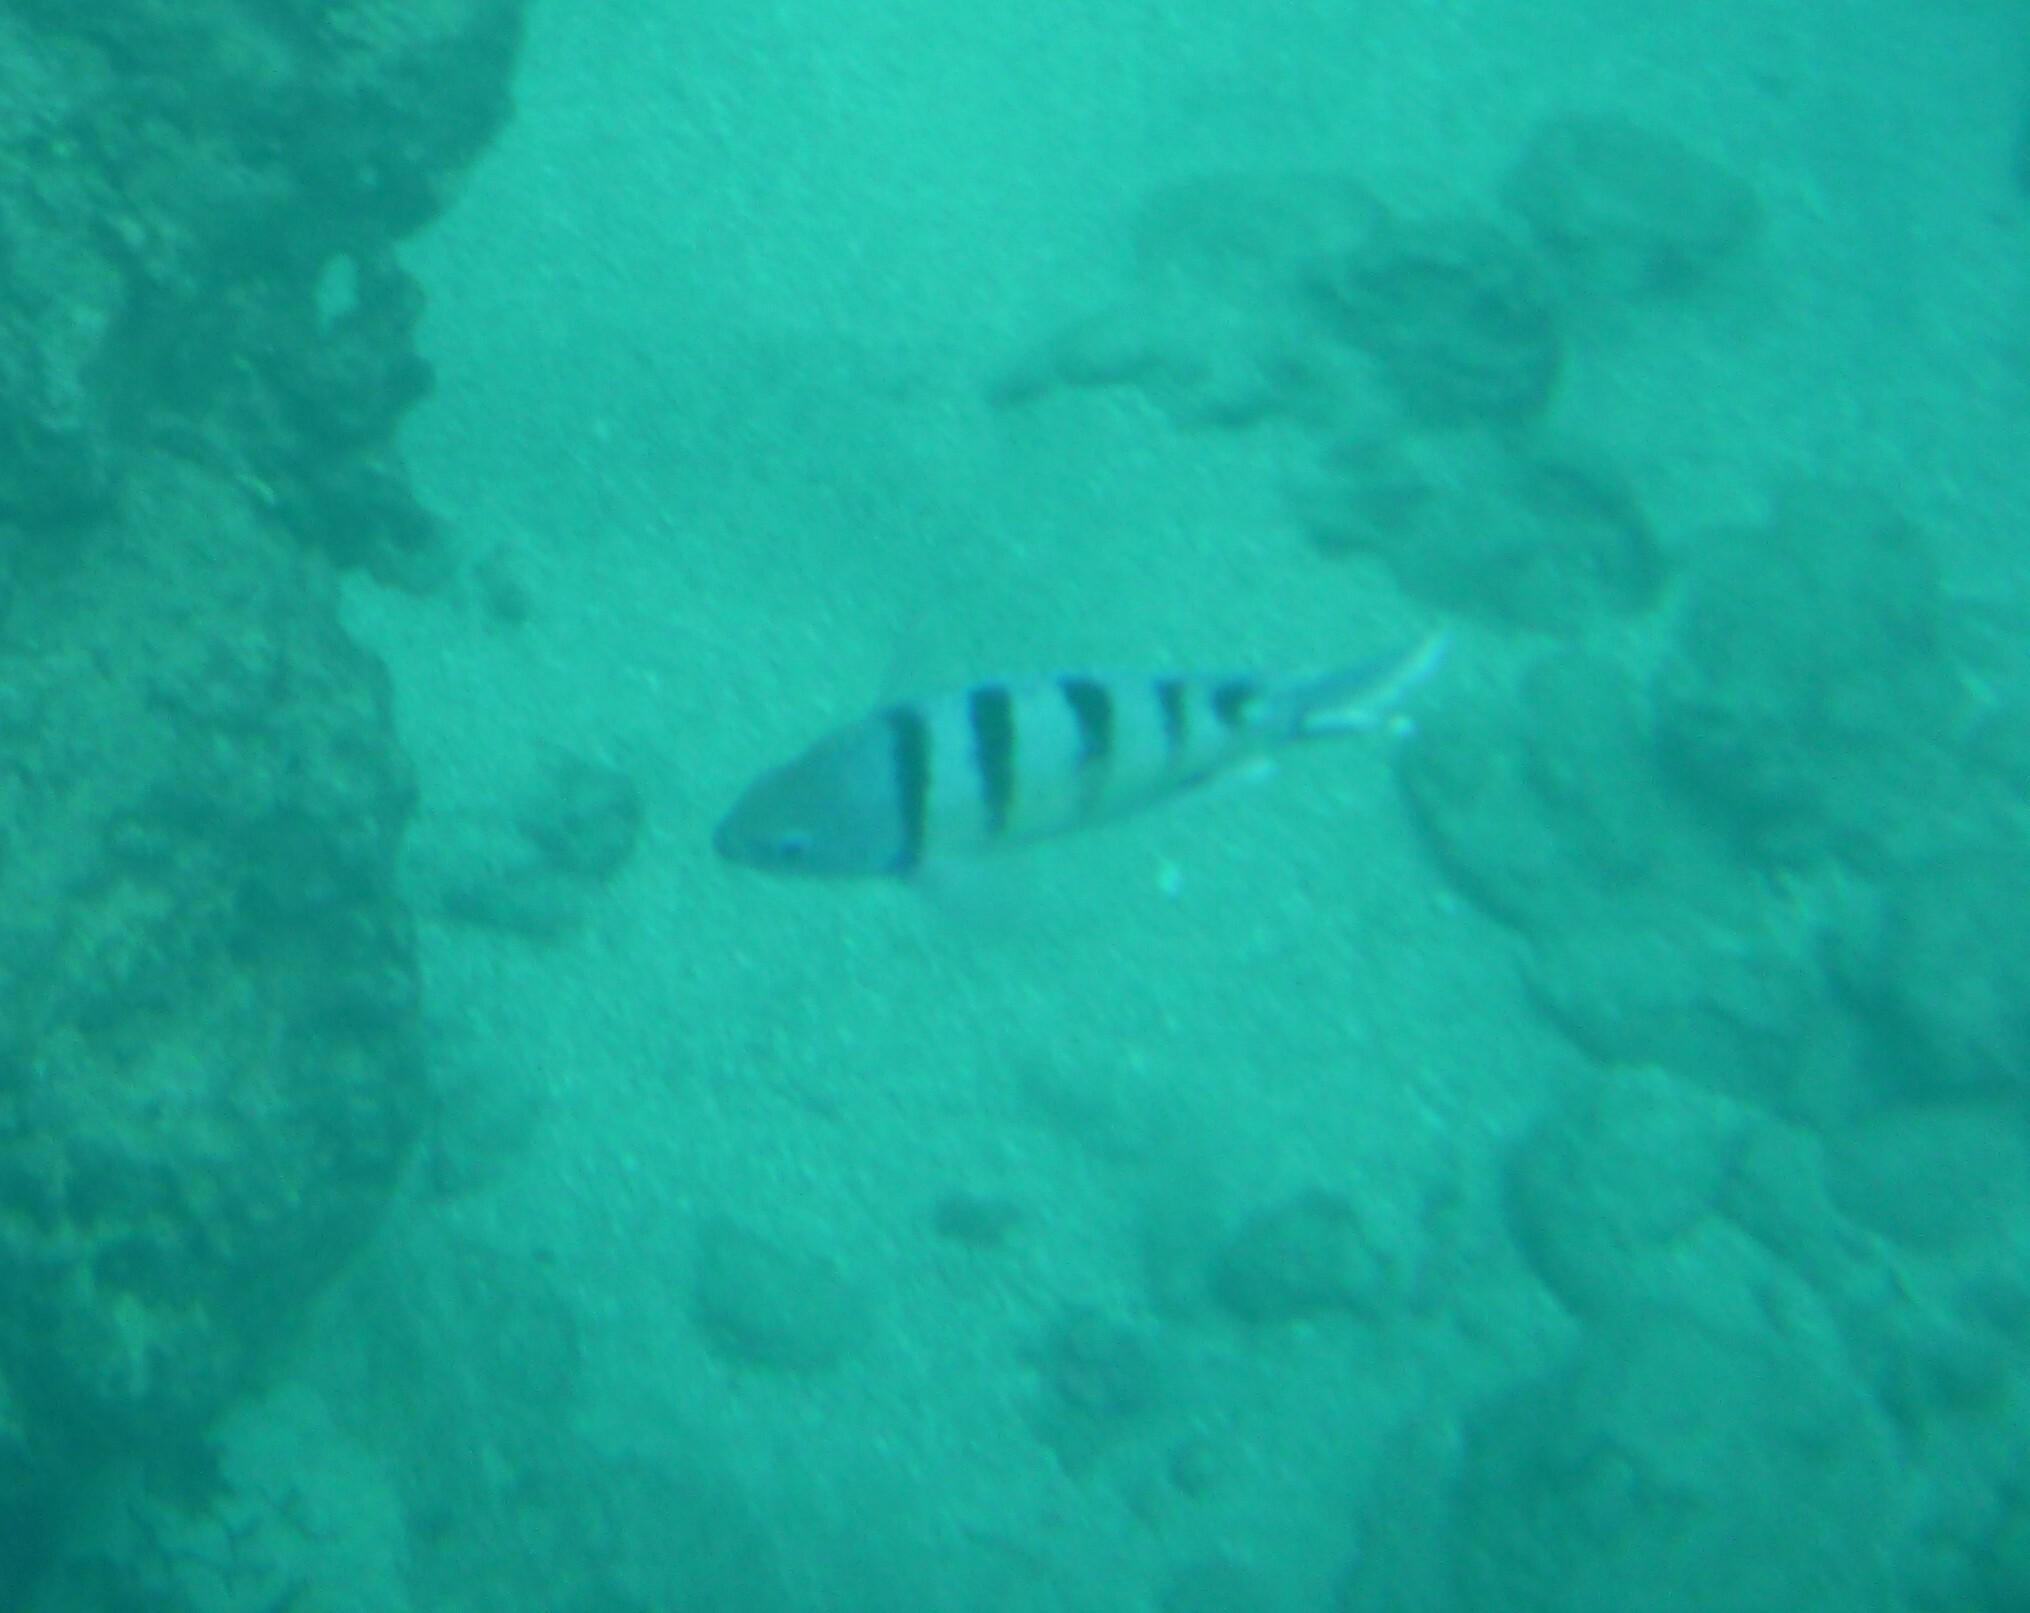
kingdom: Animalia
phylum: Chordata
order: Perciformes
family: Pomacentridae
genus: Abudefduf
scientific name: Abudefduf abdominalis
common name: Green damselfish
